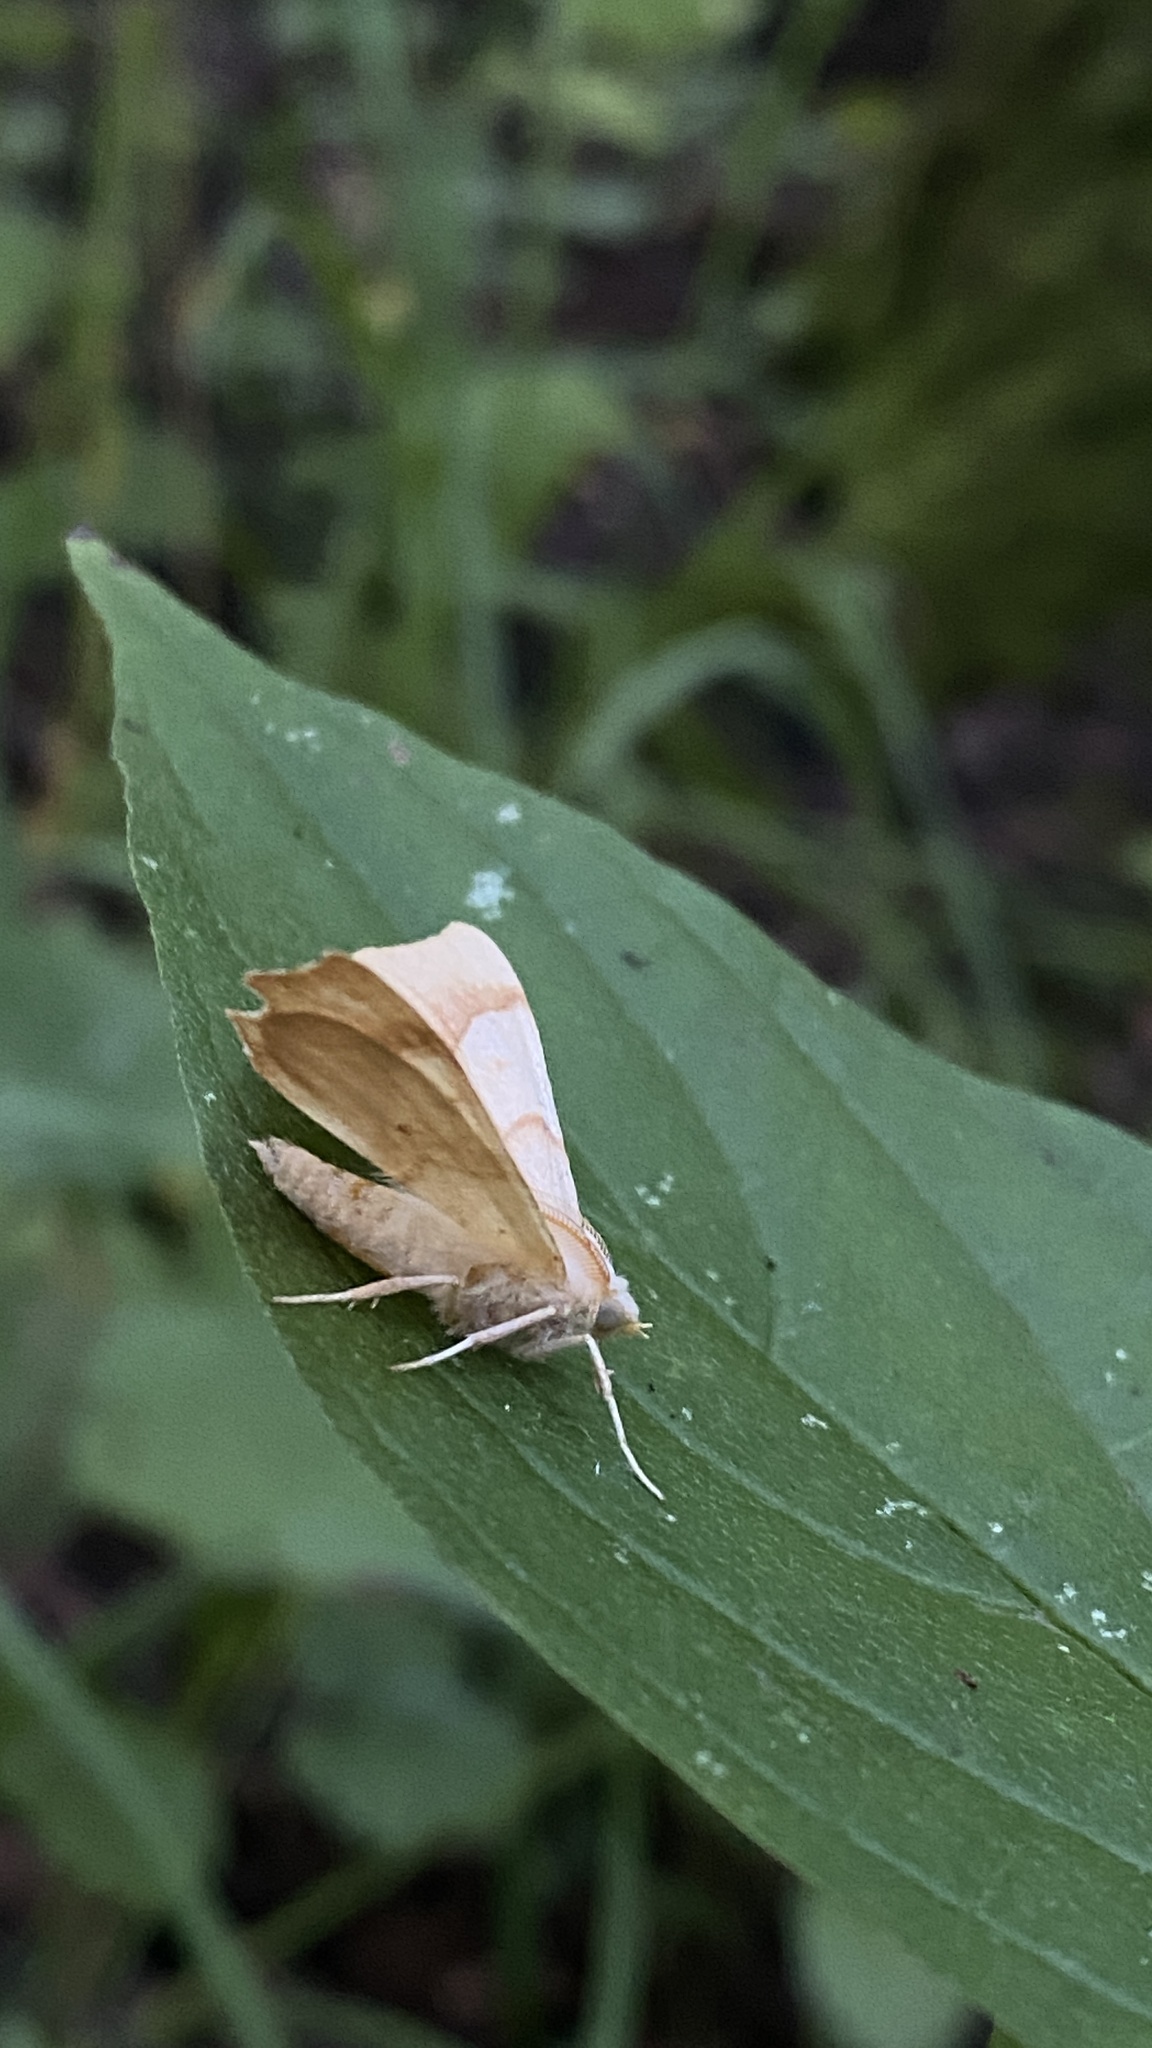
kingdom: Animalia
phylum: Arthropoda
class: Insecta
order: Lepidoptera
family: Geometridae
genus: Ennomos
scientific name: Ennomos quercinaria
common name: August thorn
